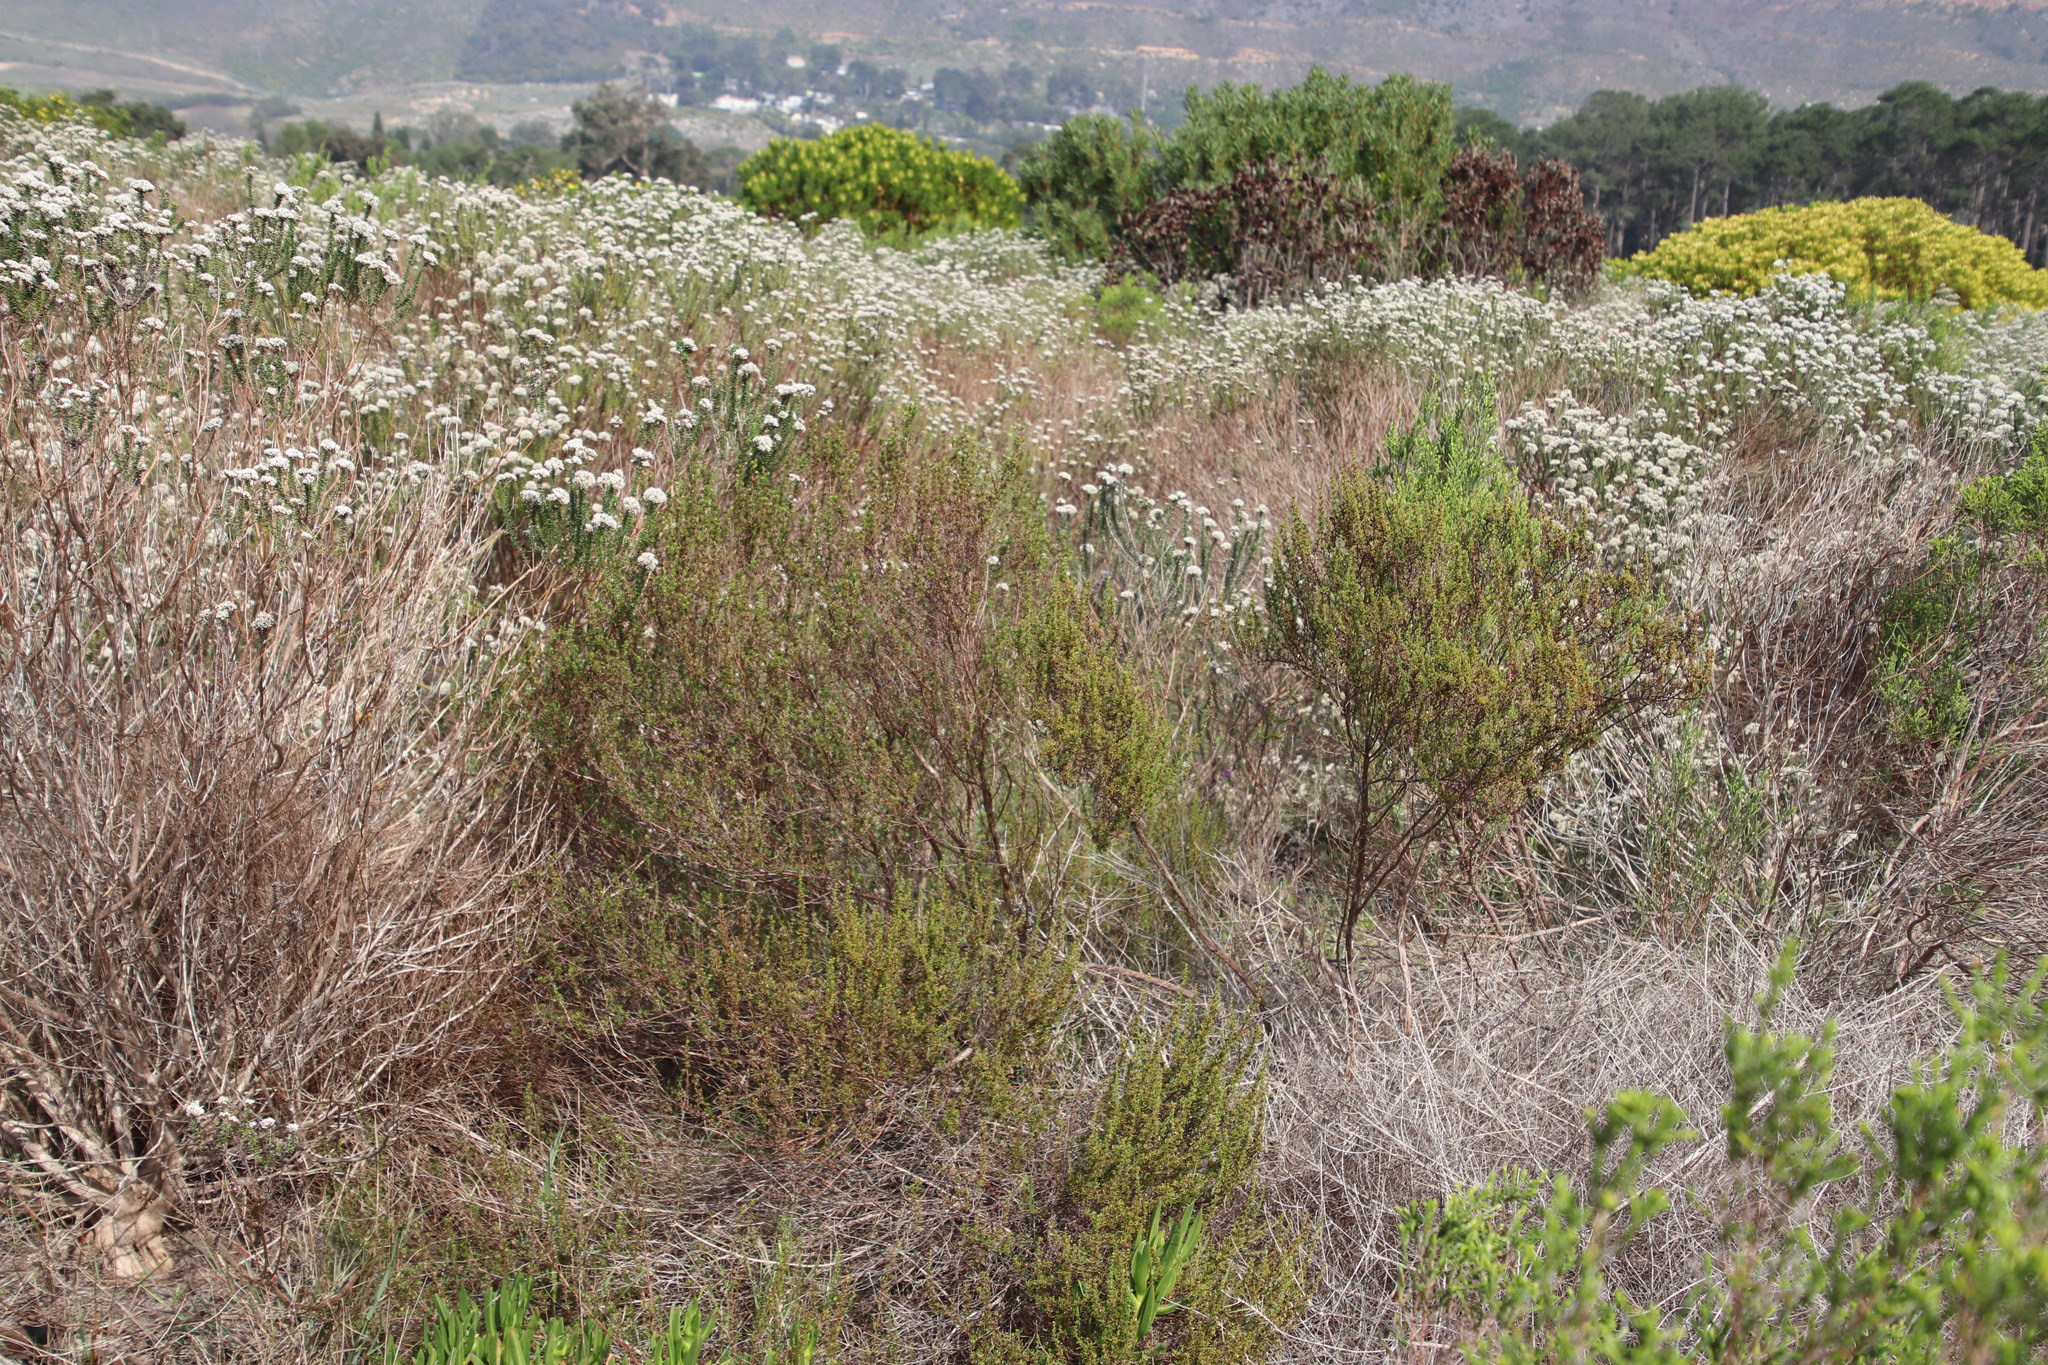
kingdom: Plantae
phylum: Tracheophyta
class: Magnoliopsida
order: Rosales
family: Rosaceae
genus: Cliffortia
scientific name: Cliffortia falcata
